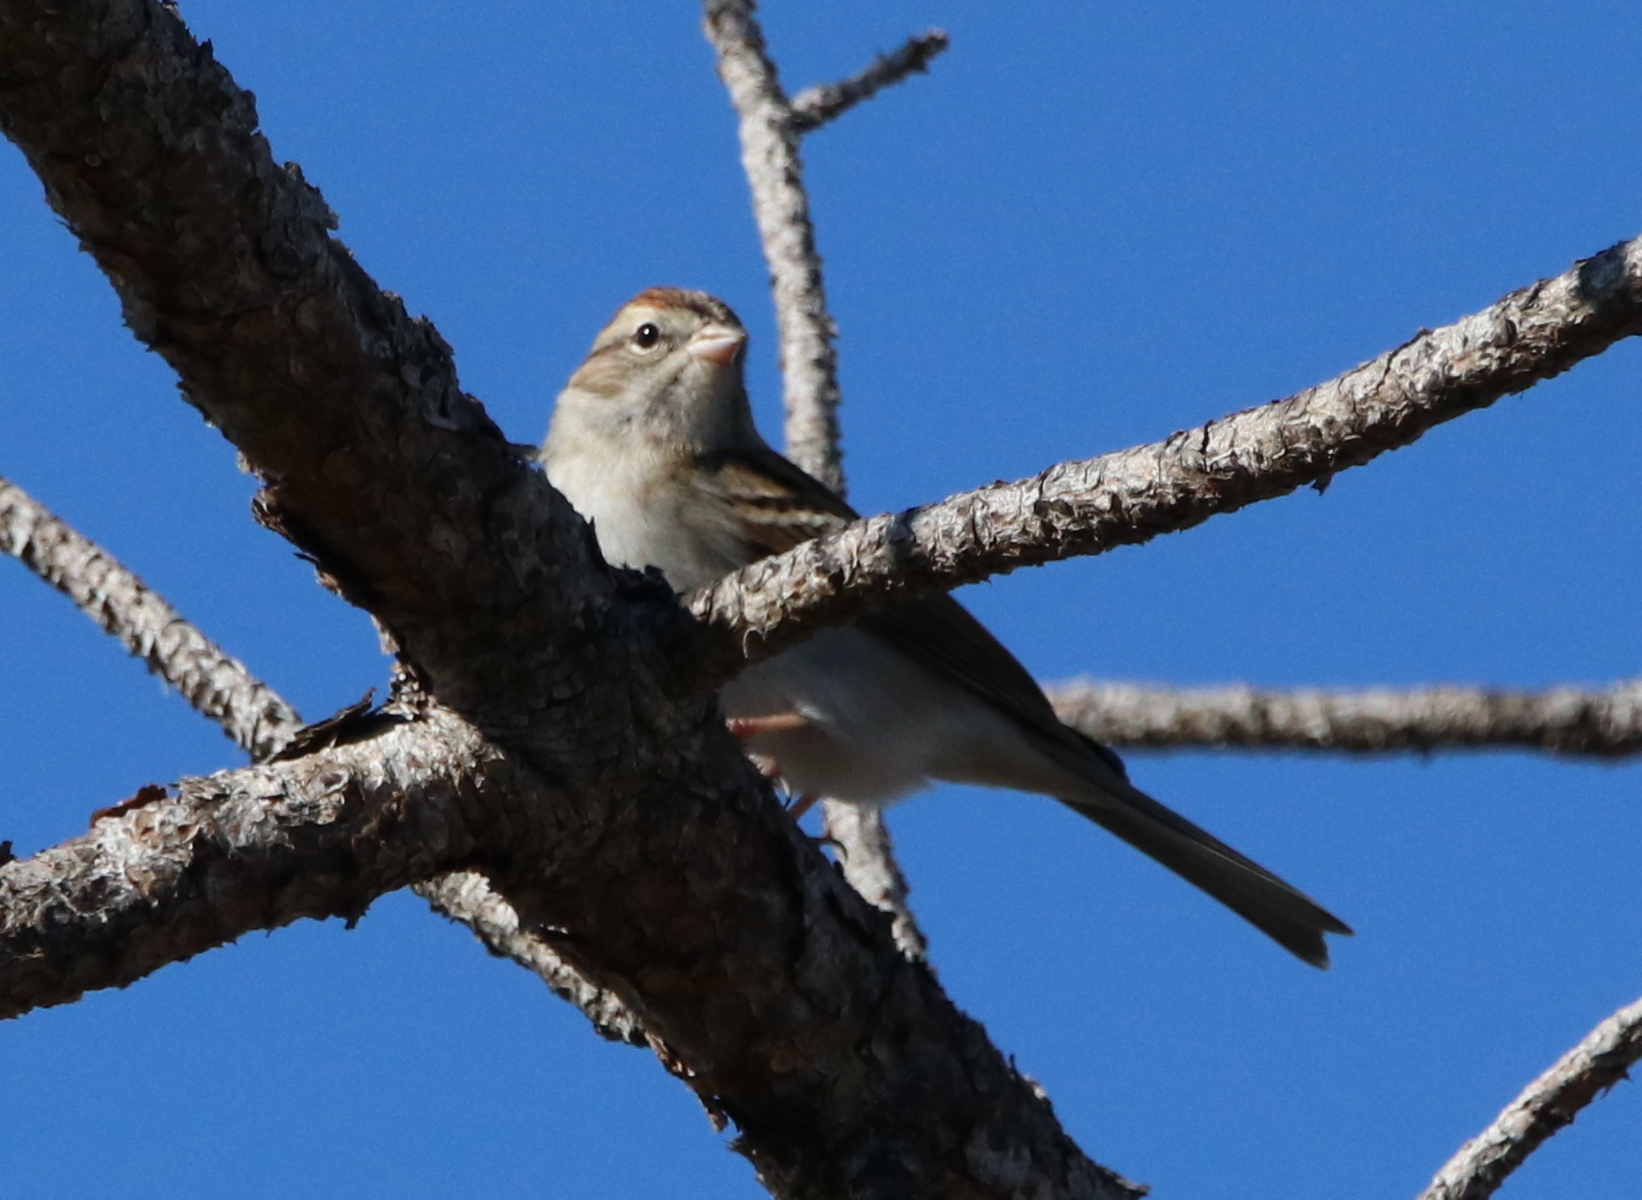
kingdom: Animalia
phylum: Chordata
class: Aves
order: Passeriformes
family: Passerellidae
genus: Spizella
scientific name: Spizella passerina
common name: Chipping sparrow
